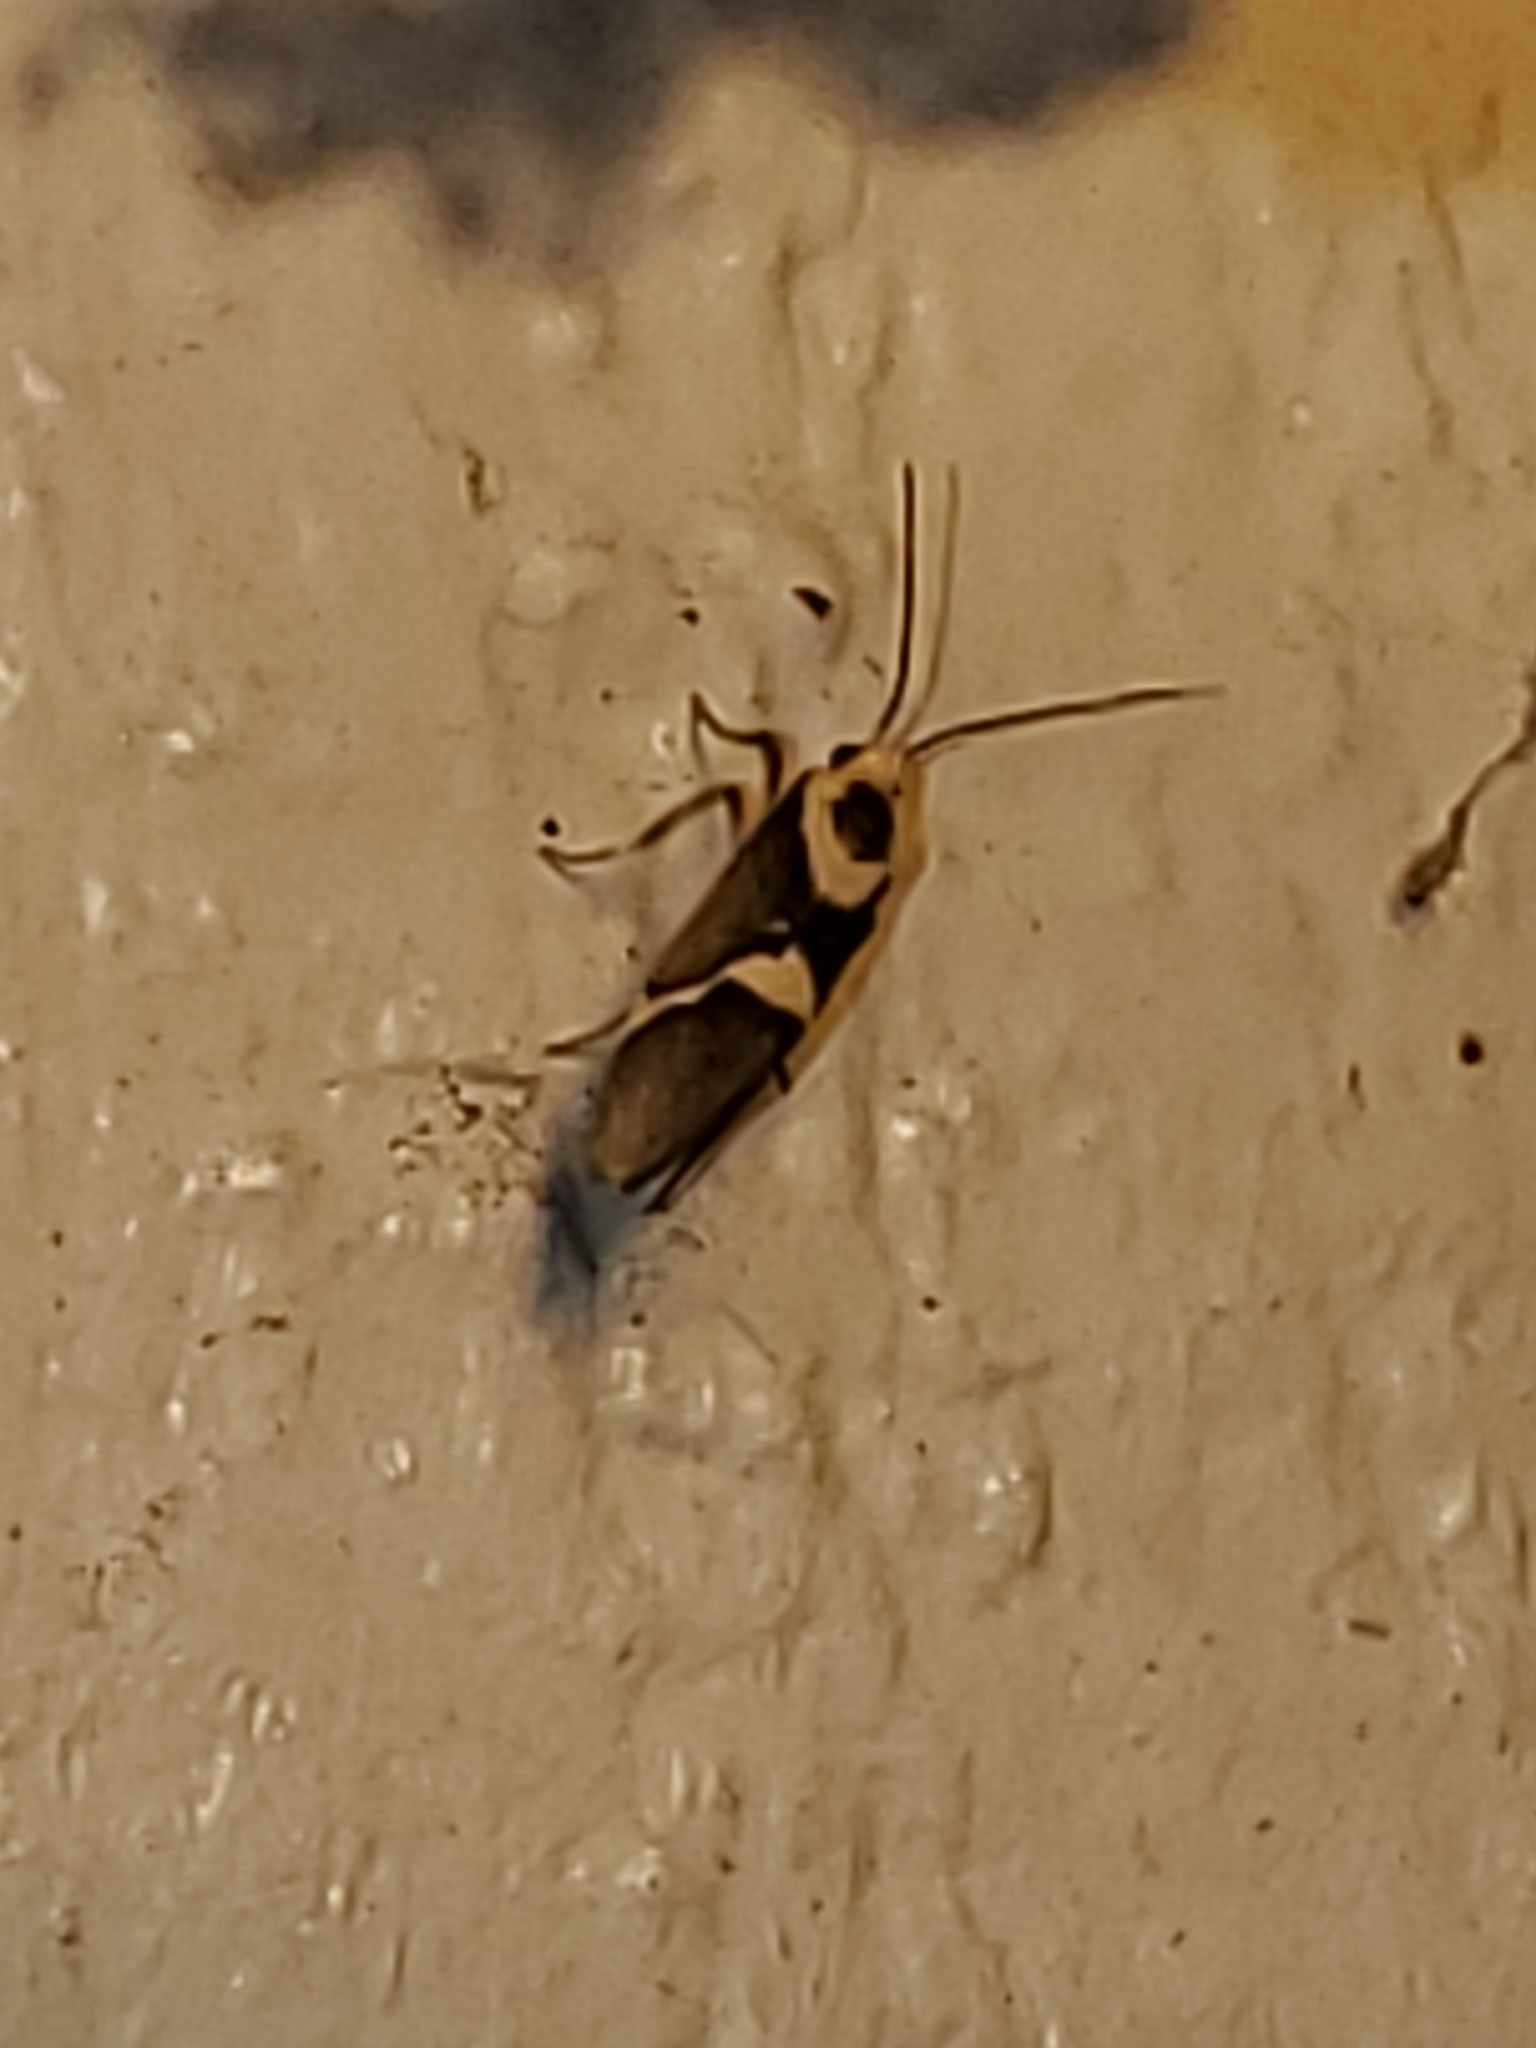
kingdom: Animalia
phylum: Arthropoda
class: Insecta
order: Lepidoptera
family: Erebidae
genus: Cisthene
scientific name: Cisthene subrufa
